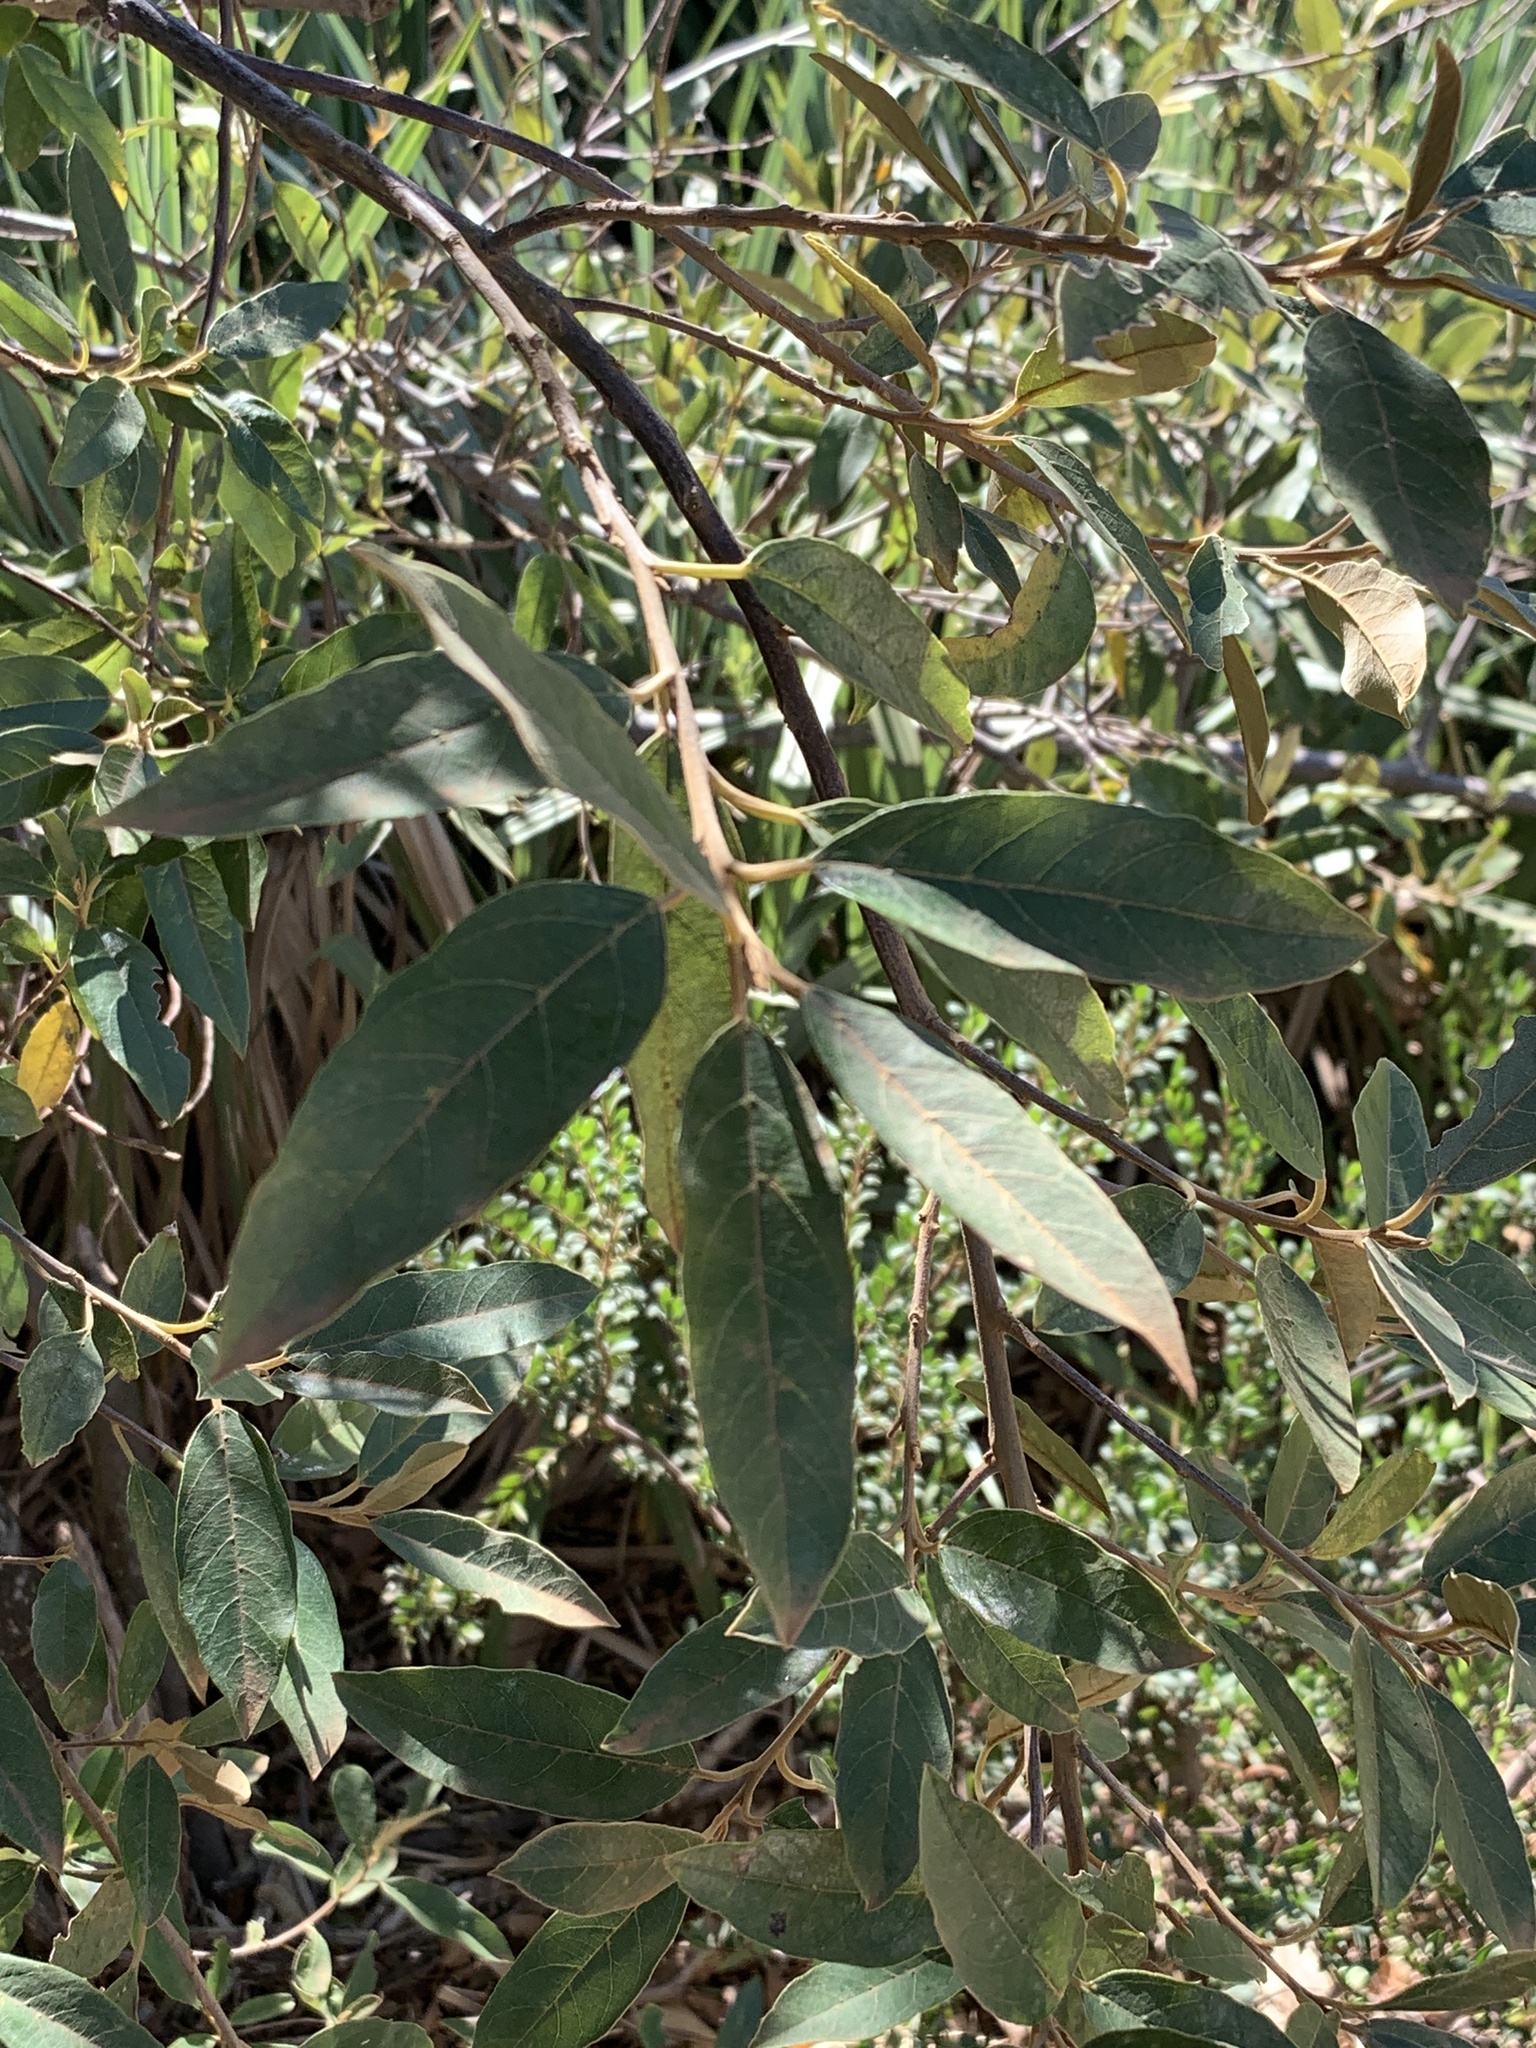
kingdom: Plantae
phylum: Tracheophyta
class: Magnoliopsida
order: Malpighiales
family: Achariaceae
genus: Kiggelaria
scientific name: Kiggelaria africana
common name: Wild peach
